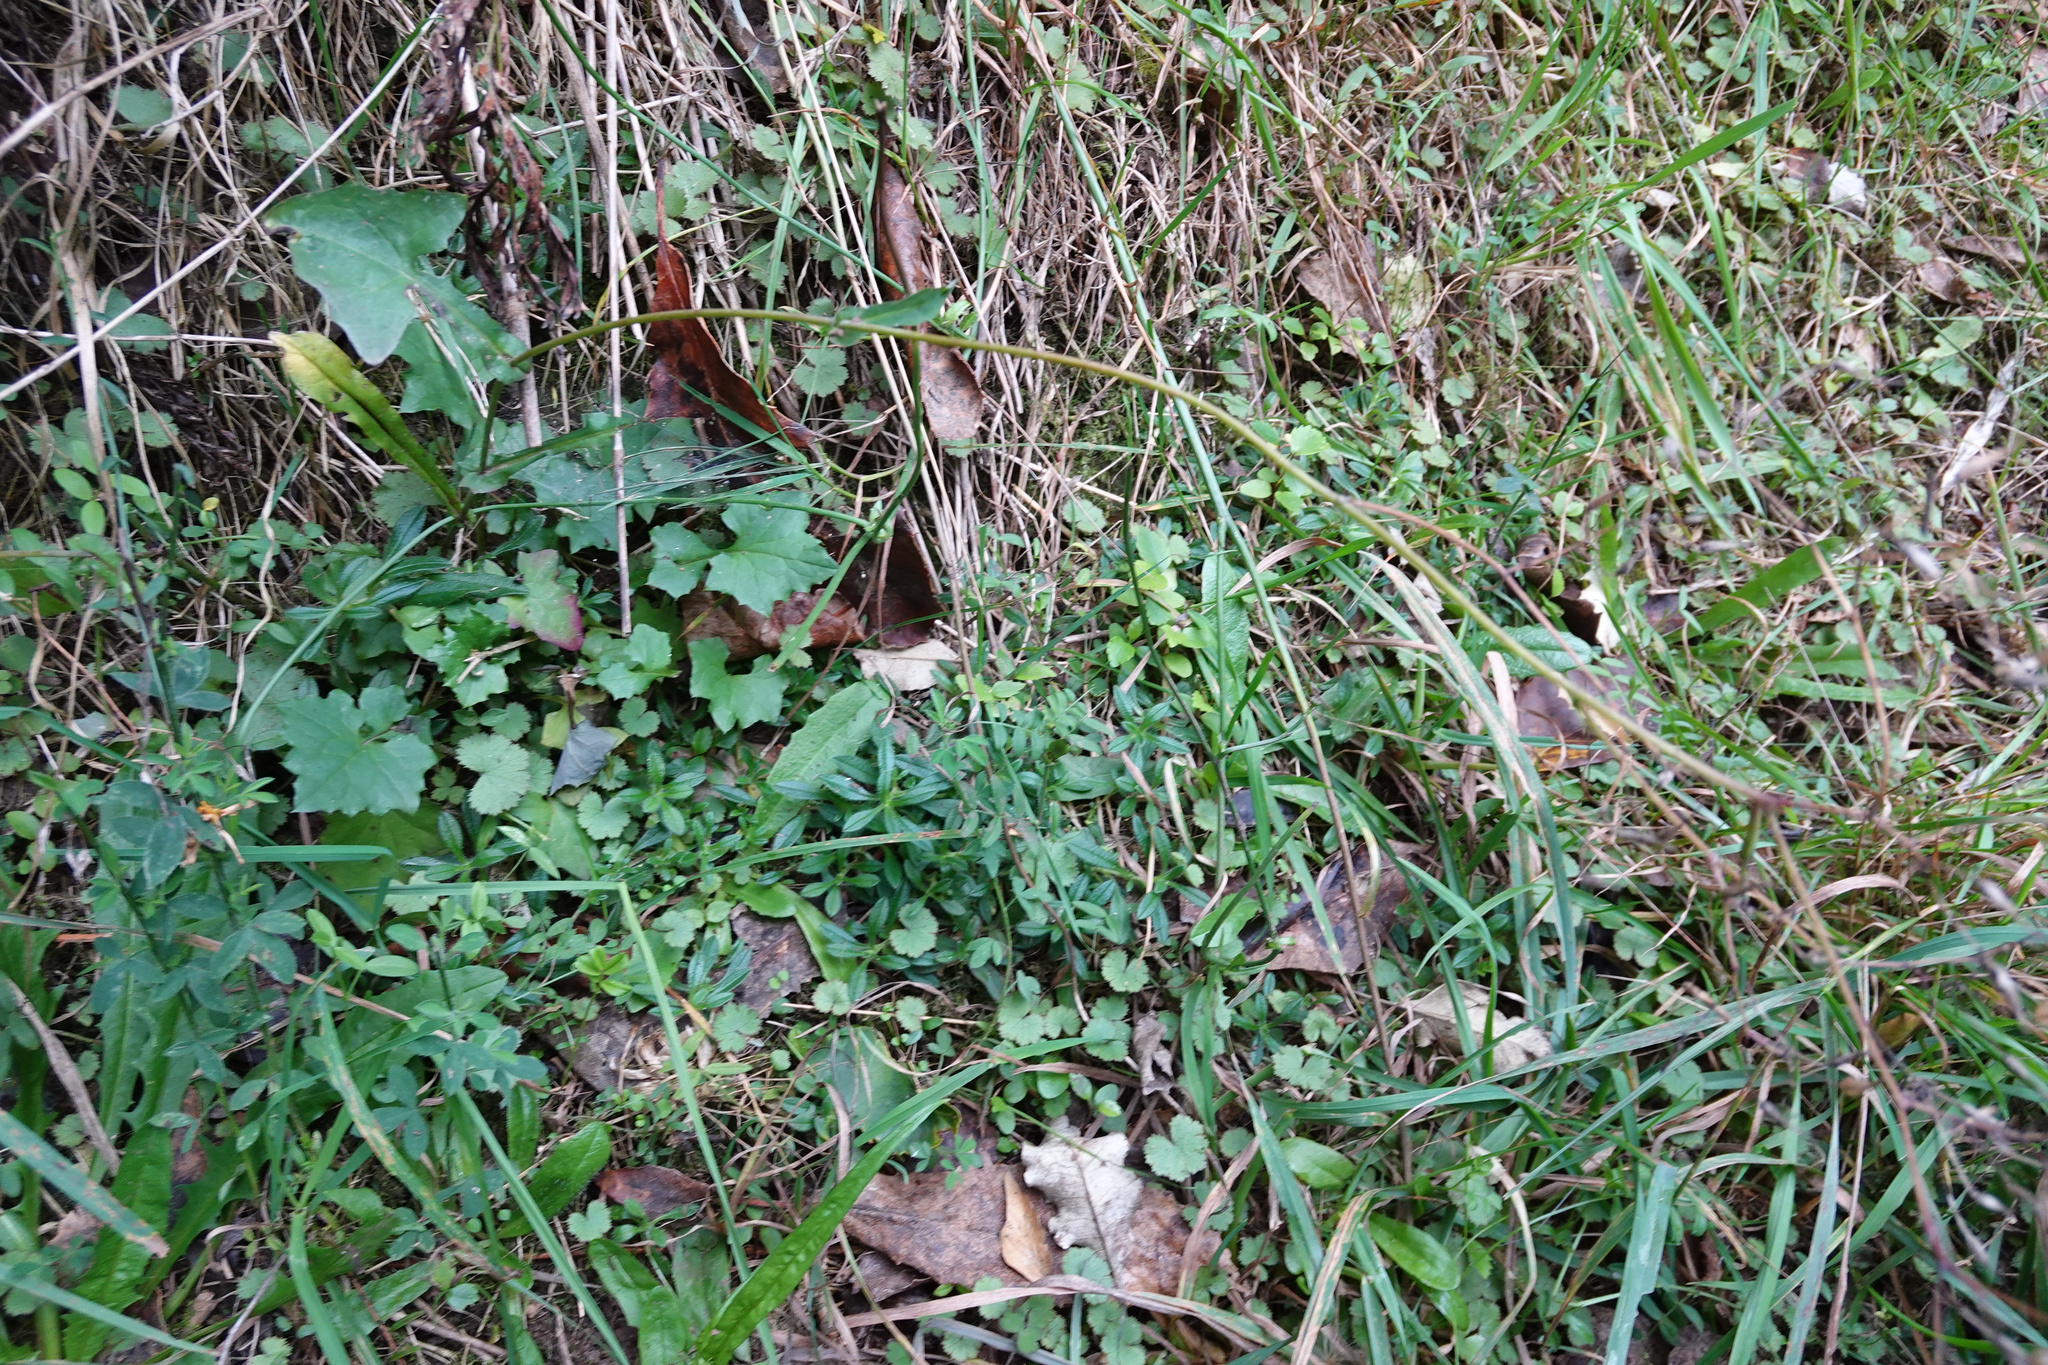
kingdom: Plantae
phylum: Tracheophyta
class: Magnoliopsida
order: Asterales
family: Asteraceae
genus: Mycelis
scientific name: Mycelis muralis
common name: Wall lettuce
